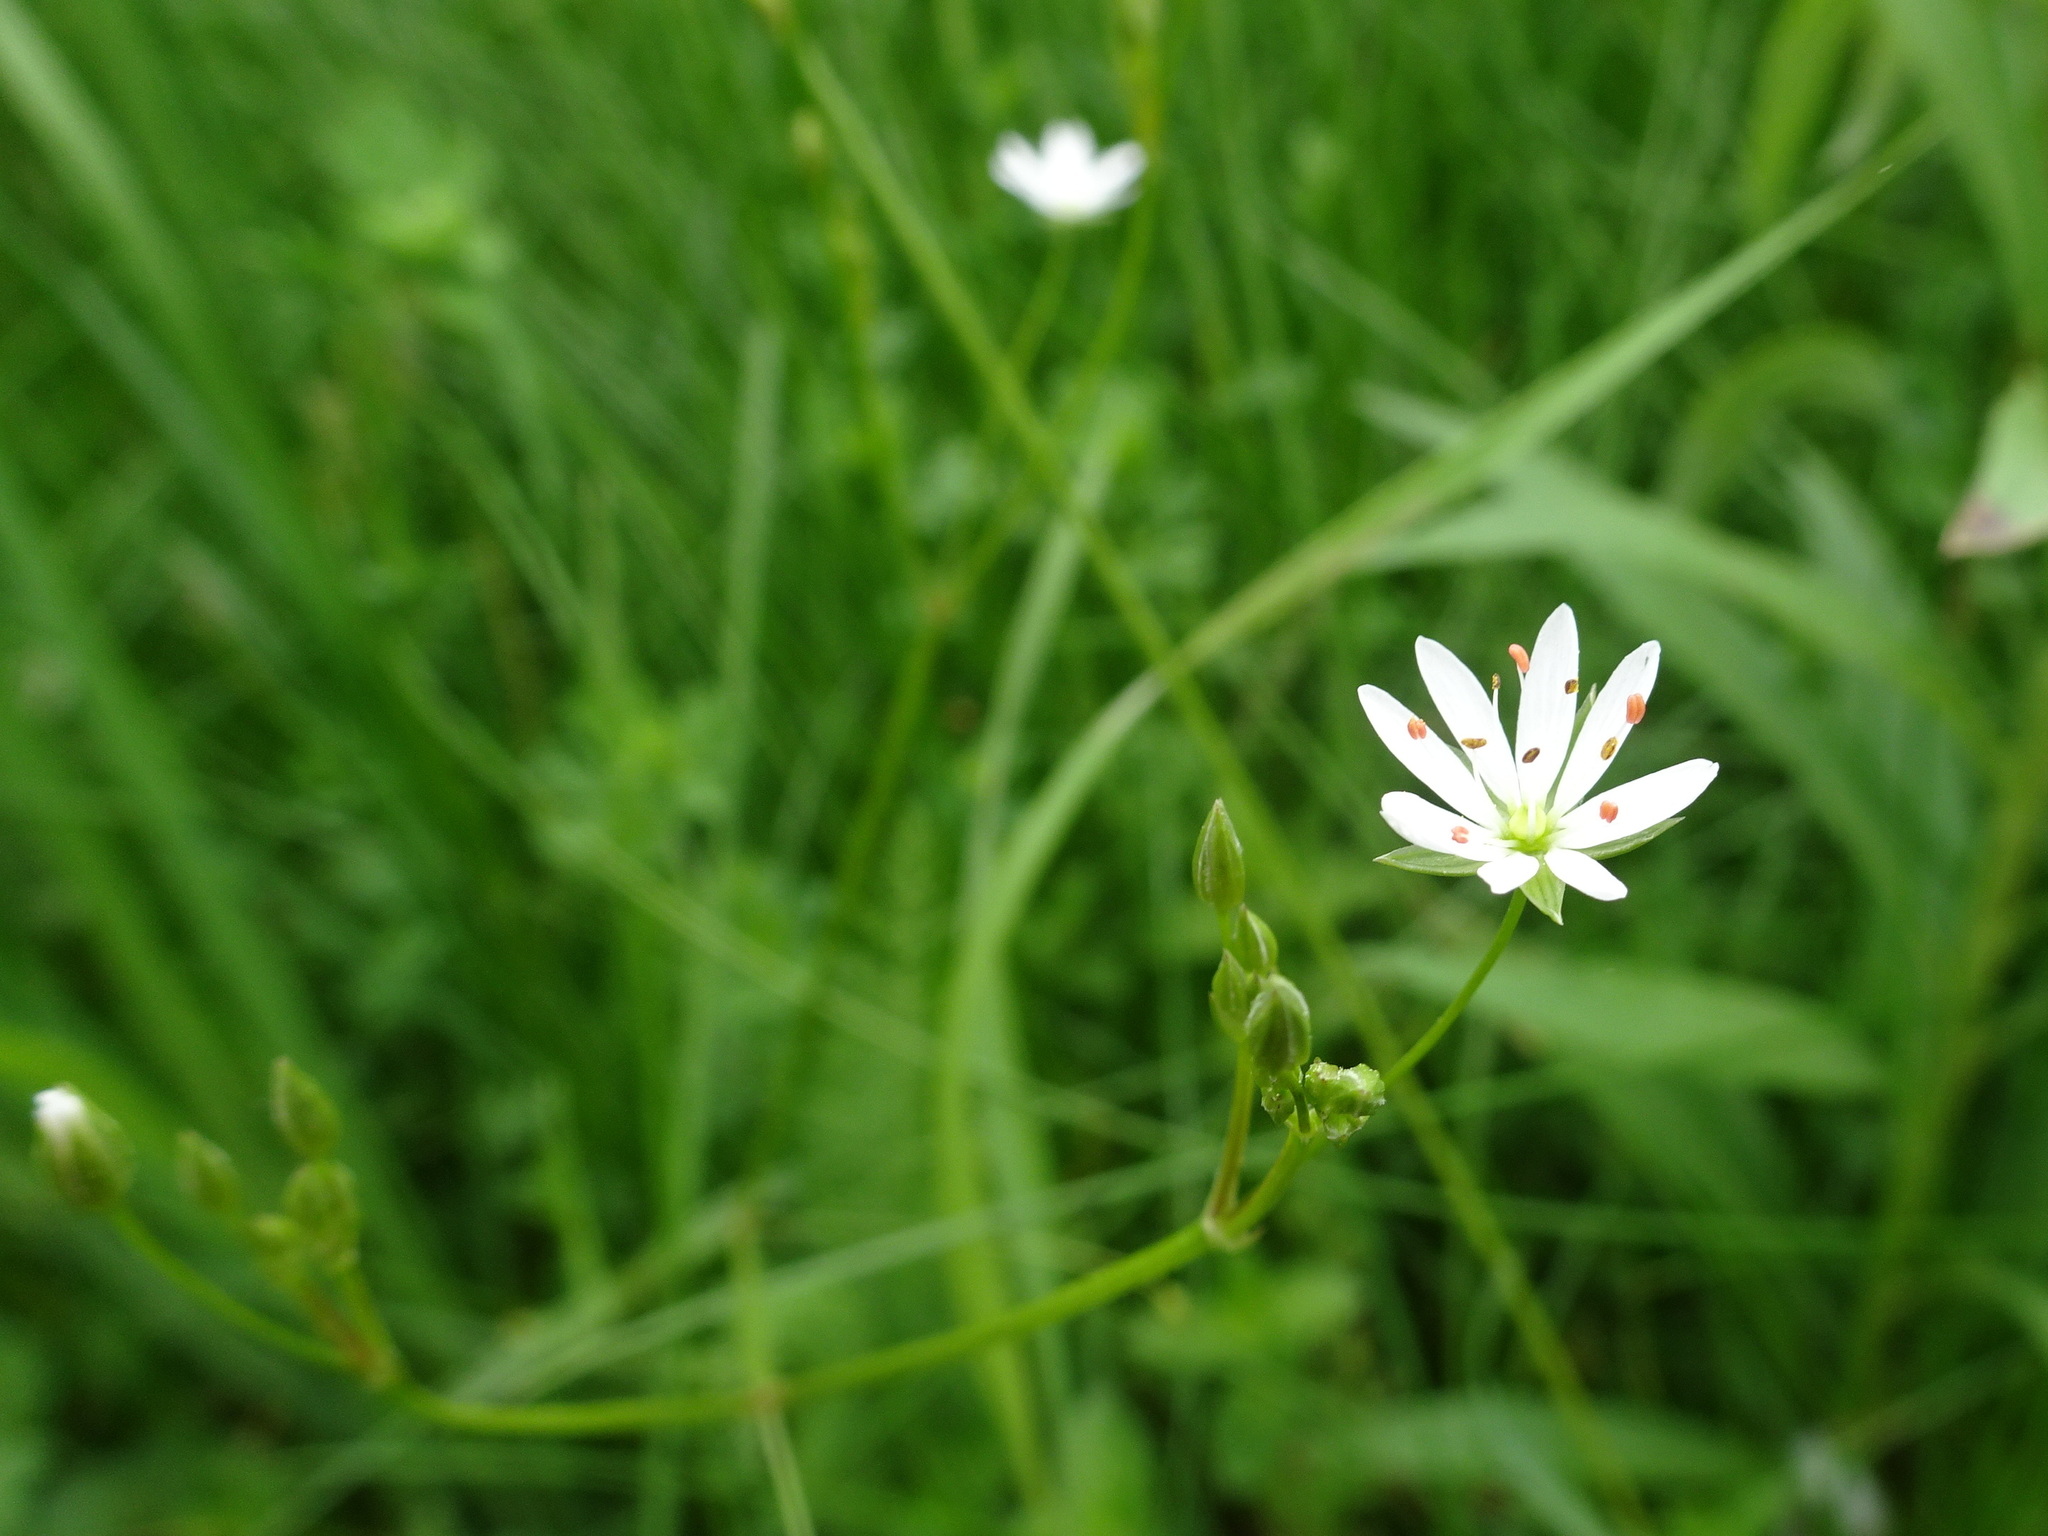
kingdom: Plantae
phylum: Tracheophyta
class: Magnoliopsida
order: Caryophyllales
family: Caryophyllaceae
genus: Stellaria
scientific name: Stellaria graminea
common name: Grass-like starwort
